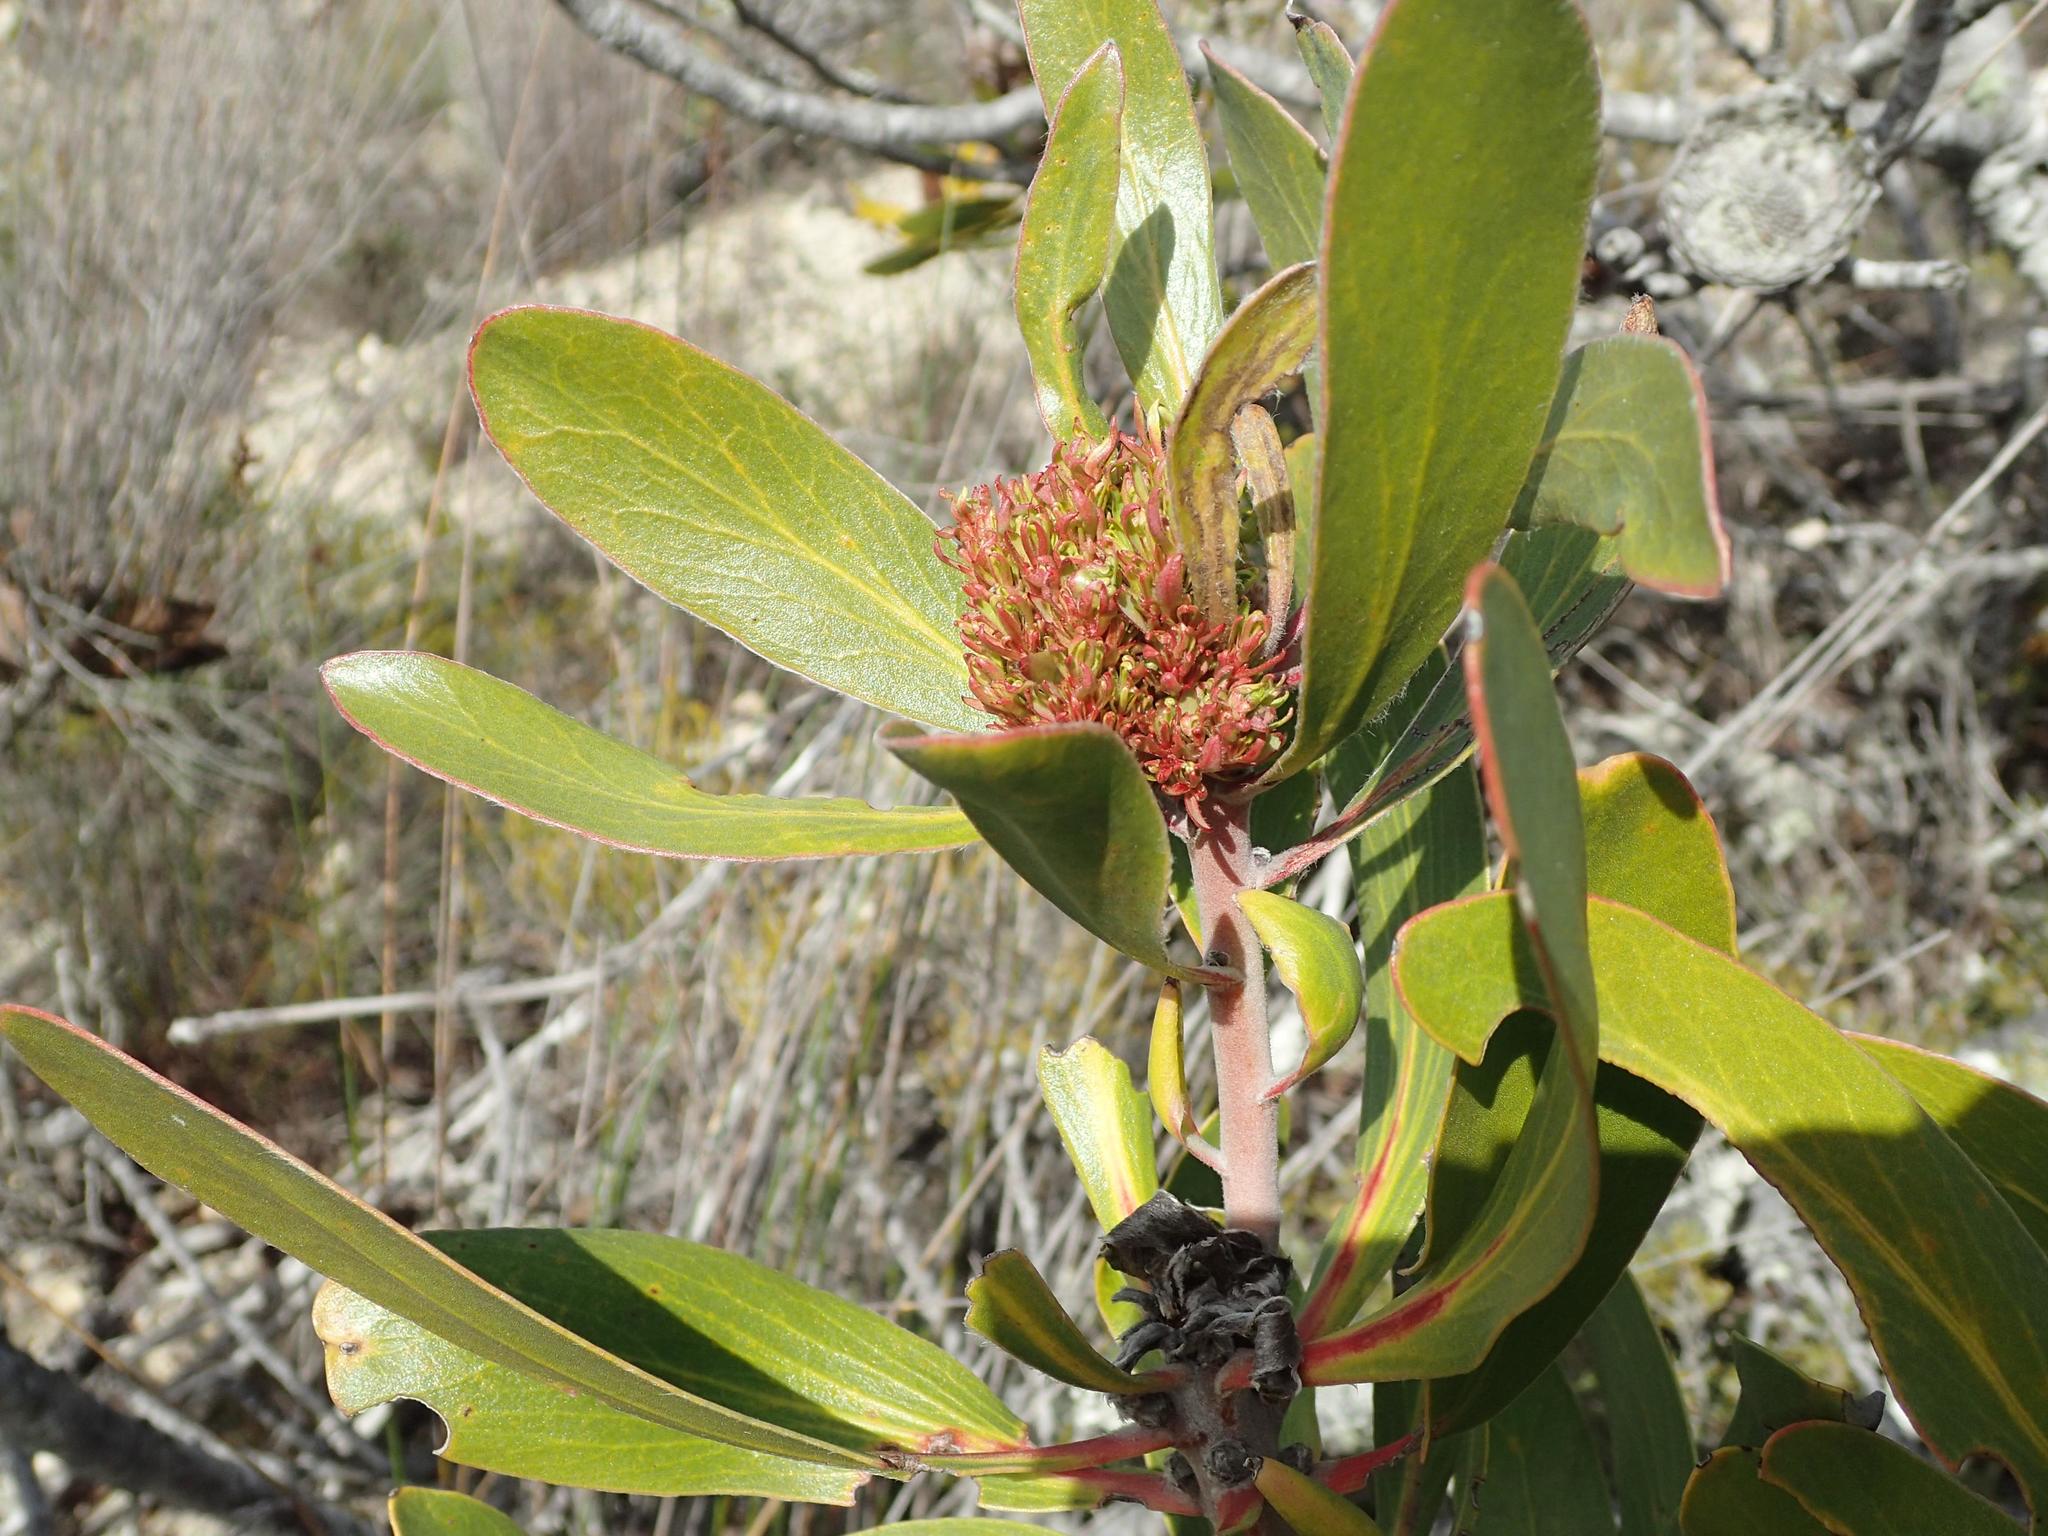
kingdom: Bacteria
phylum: Firmicutes
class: Bacilli
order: Acholeplasmatales
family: Acholeplasmataceae
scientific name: Acholeplasmataceae
